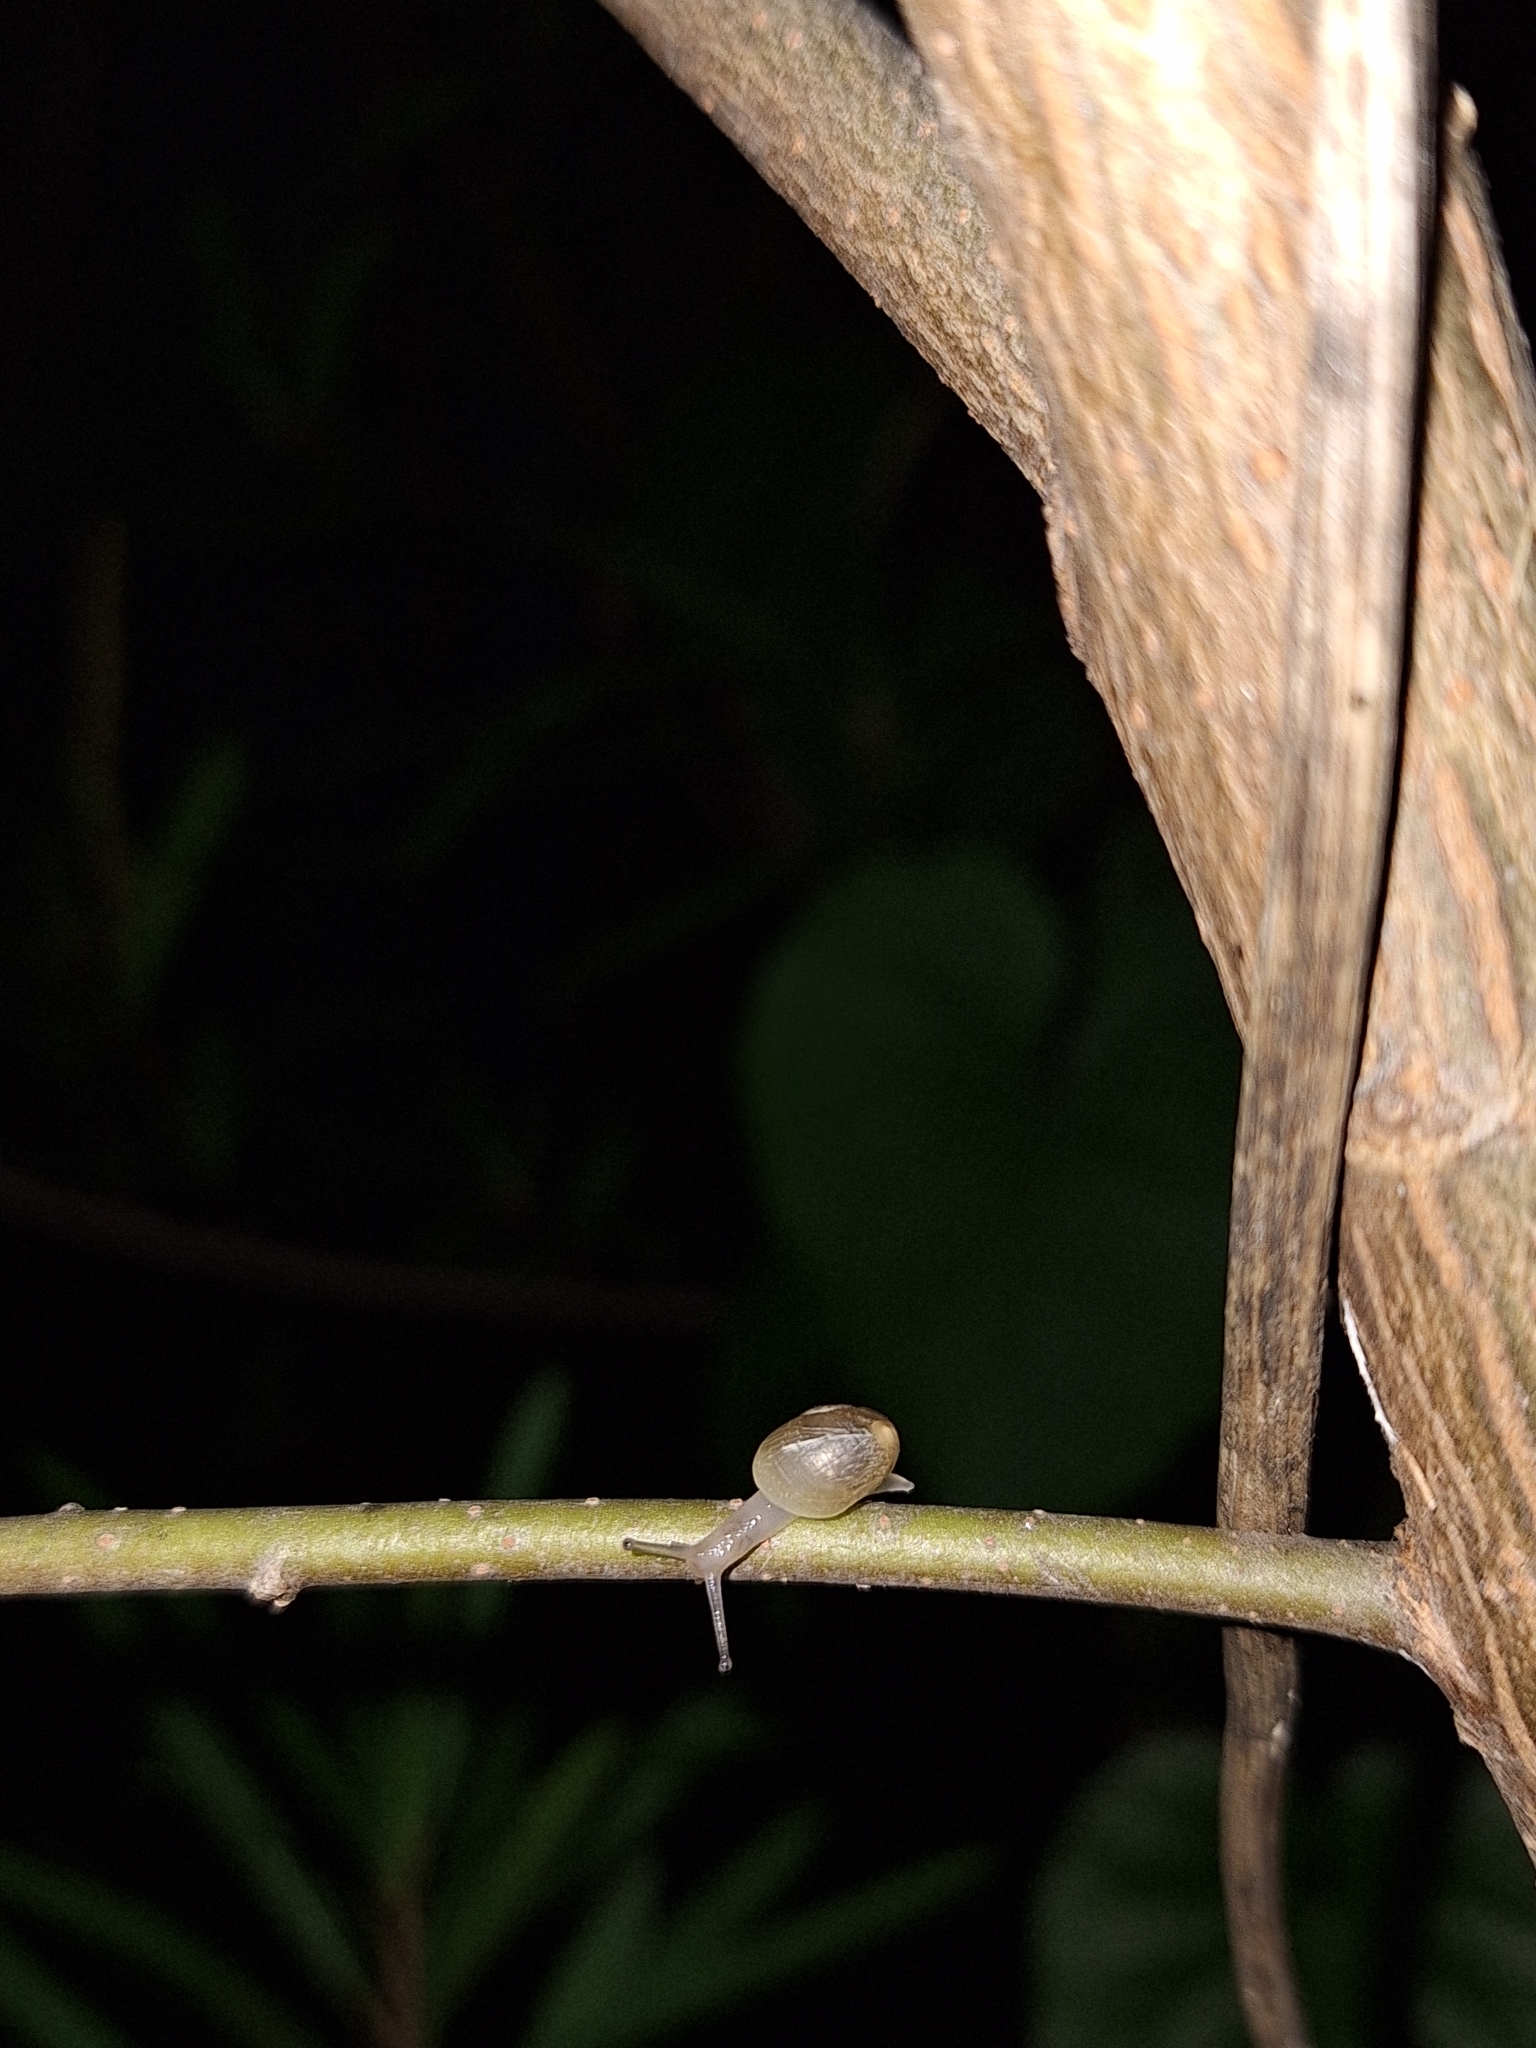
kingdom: Animalia
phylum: Mollusca
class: Gastropoda
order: Stylommatophora
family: Helicidae
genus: Cornu
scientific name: Cornu aspersum
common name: Brown garden snail
